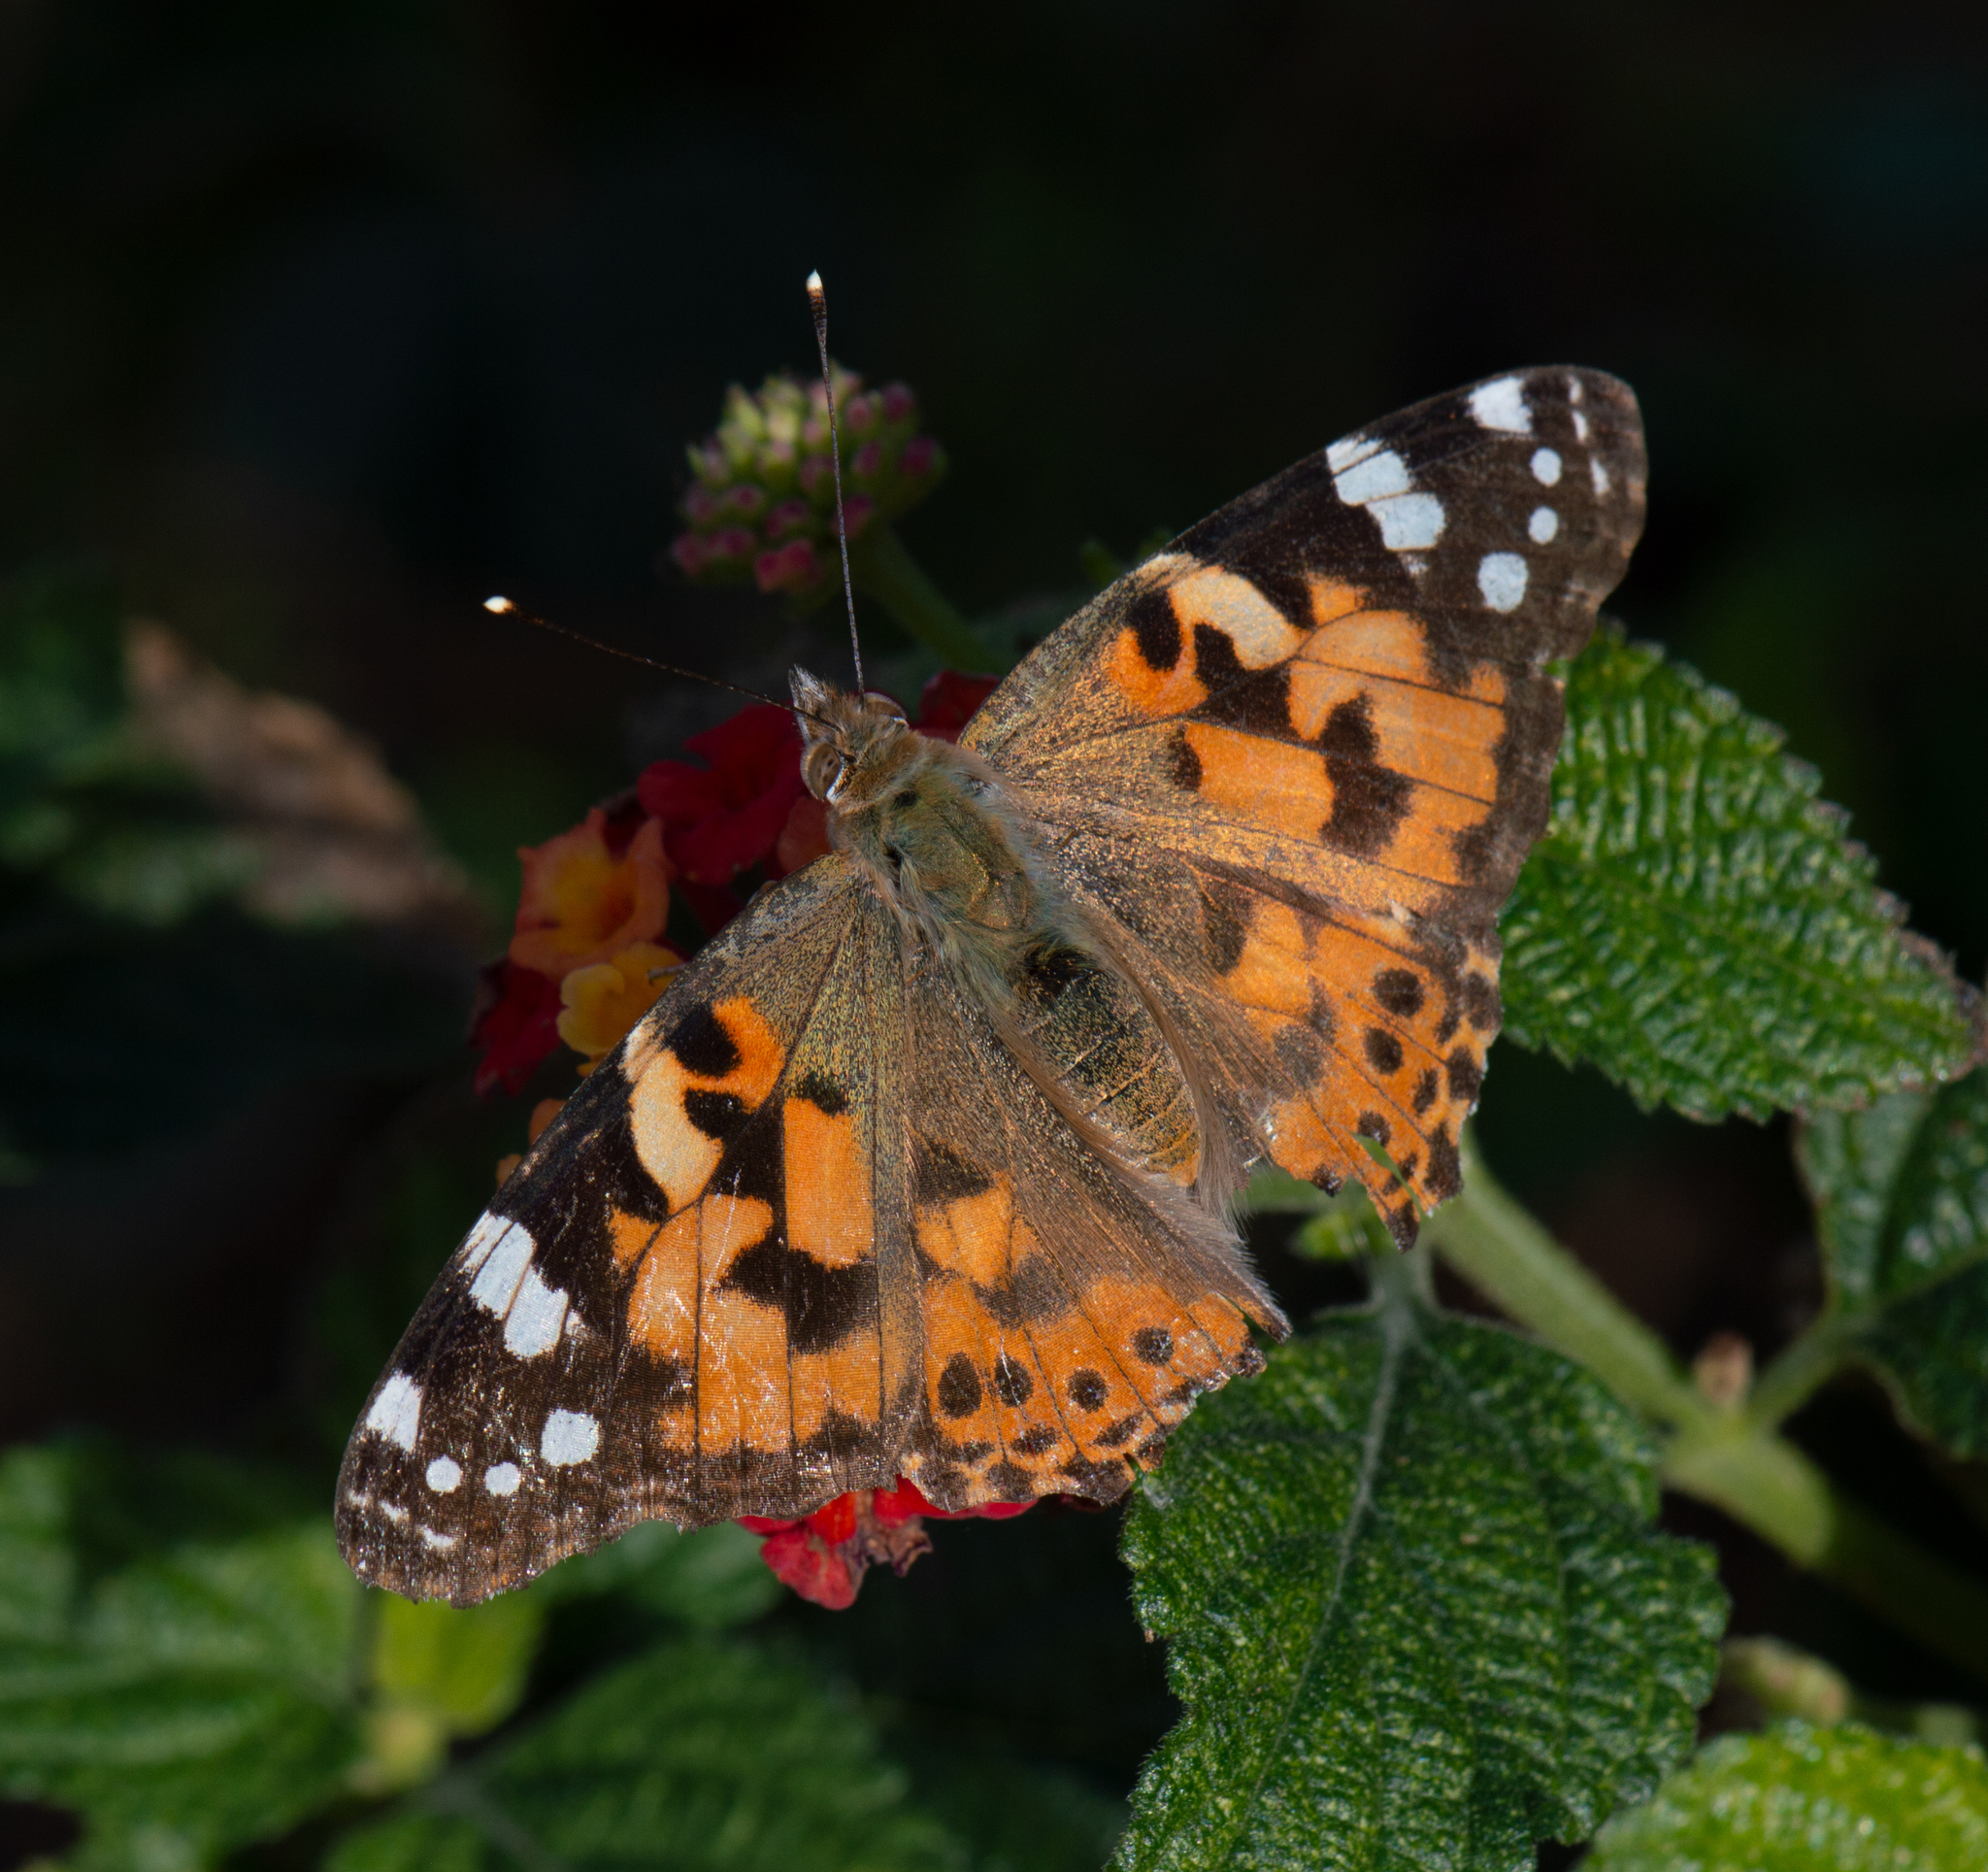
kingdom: Animalia
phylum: Arthropoda
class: Insecta
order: Lepidoptera
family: Nymphalidae
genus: Vanessa
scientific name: Vanessa cardui
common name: Painted lady
